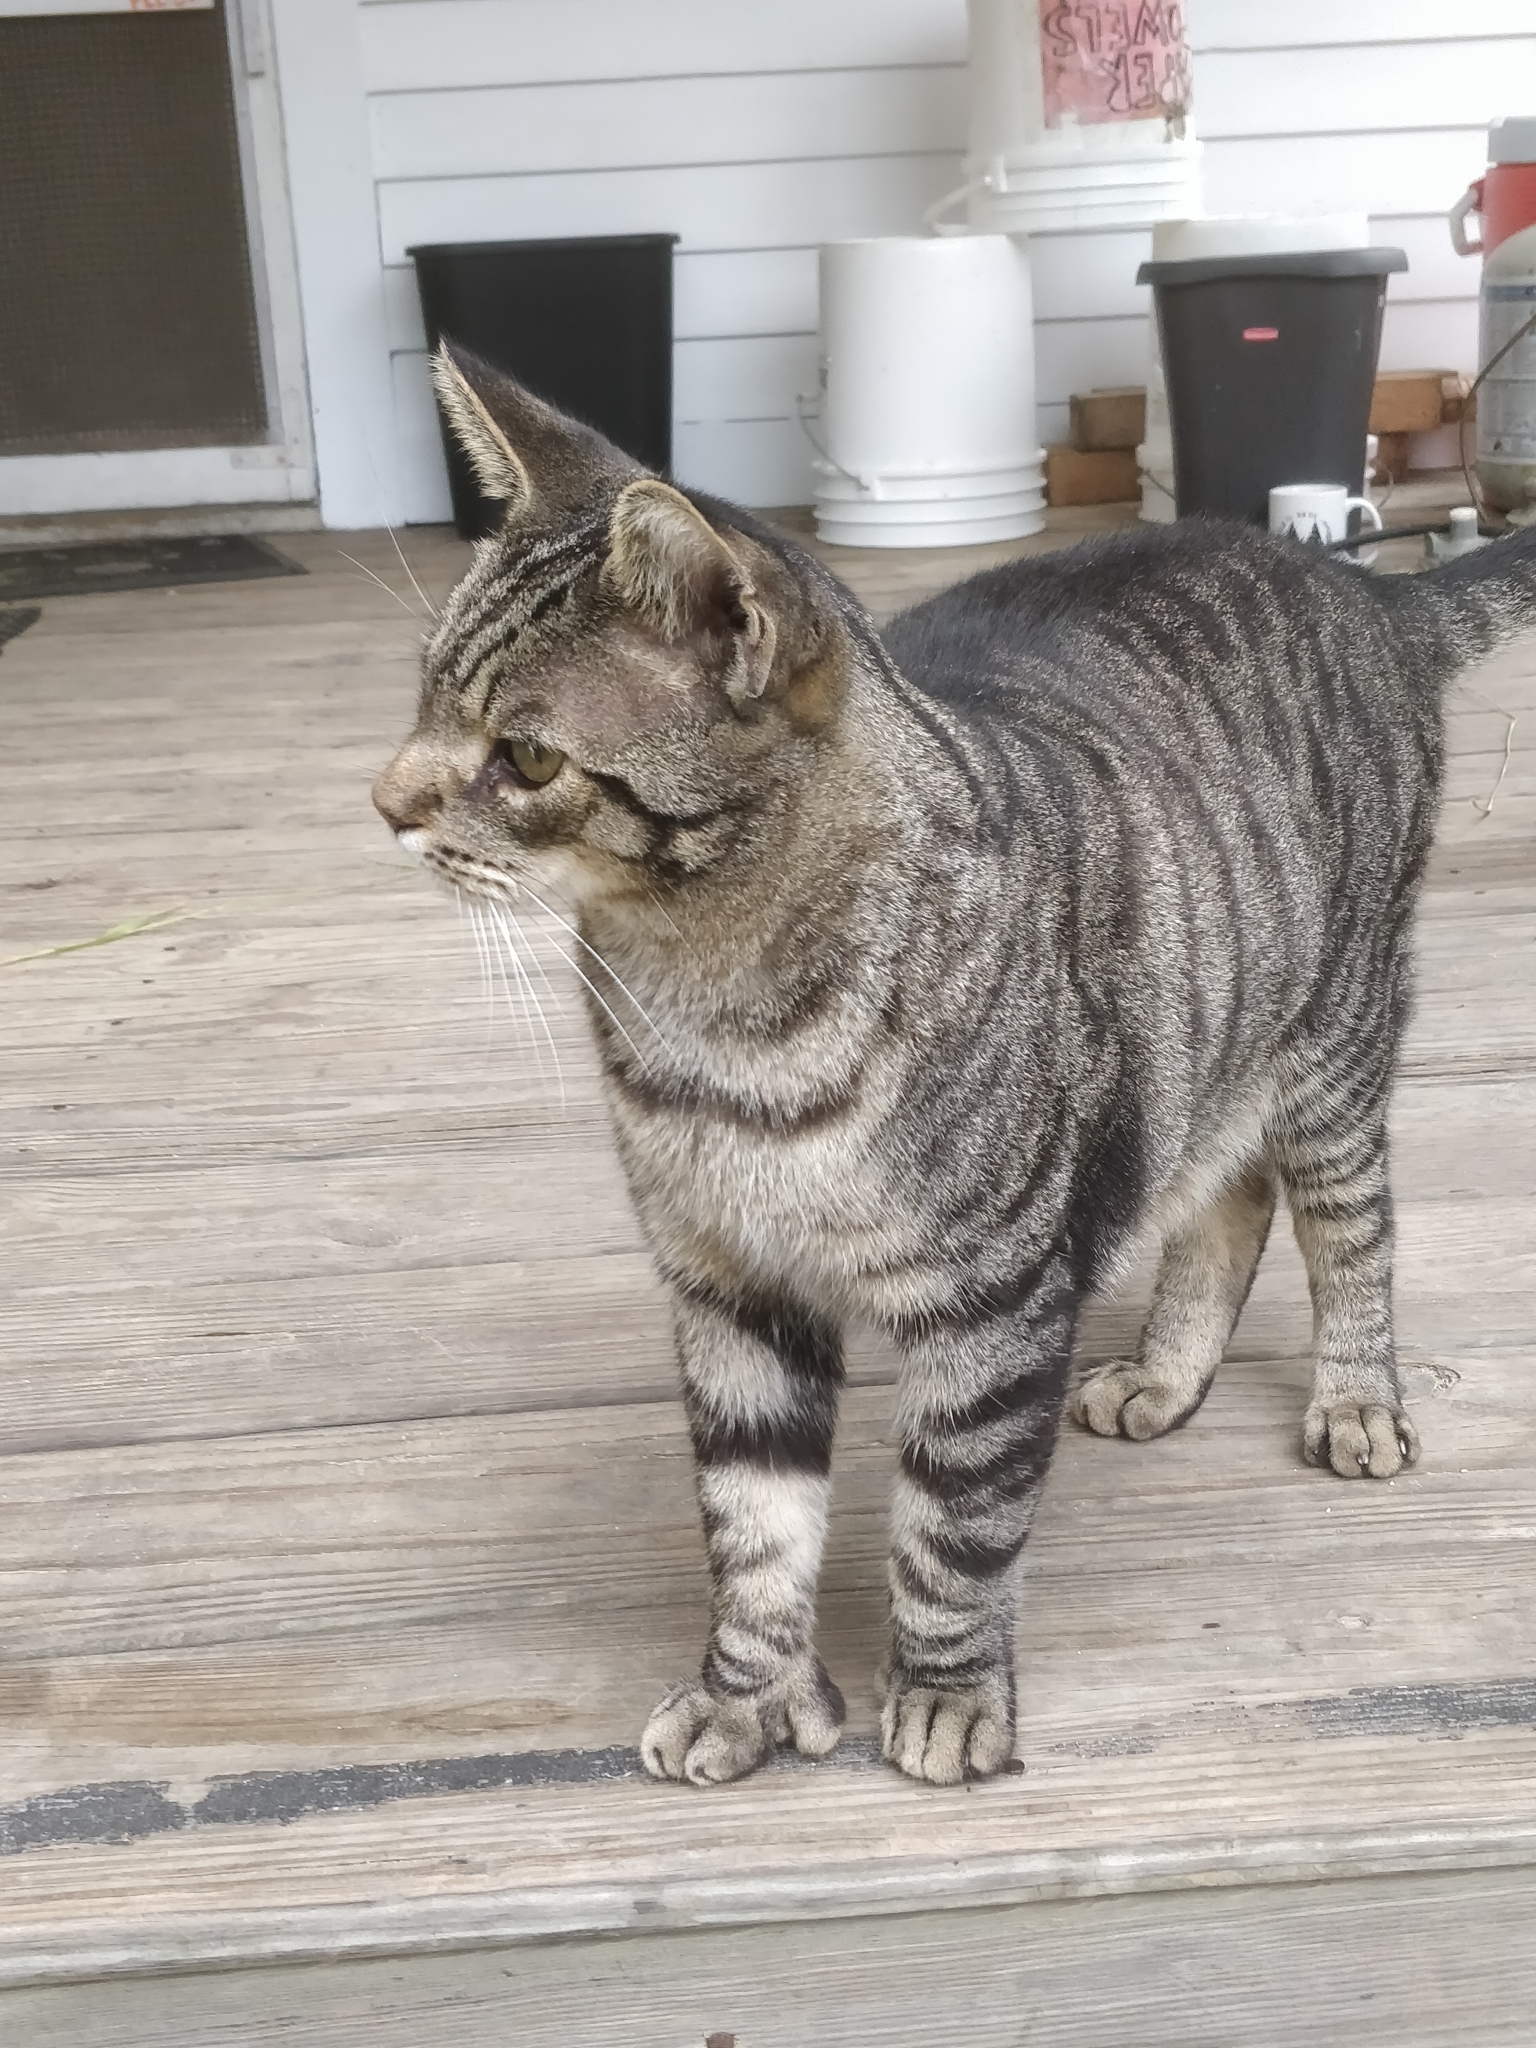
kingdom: Animalia
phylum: Chordata
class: Mammalia
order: Carnivora
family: Felidae
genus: Felis
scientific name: Felis catus
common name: Domestic cat
